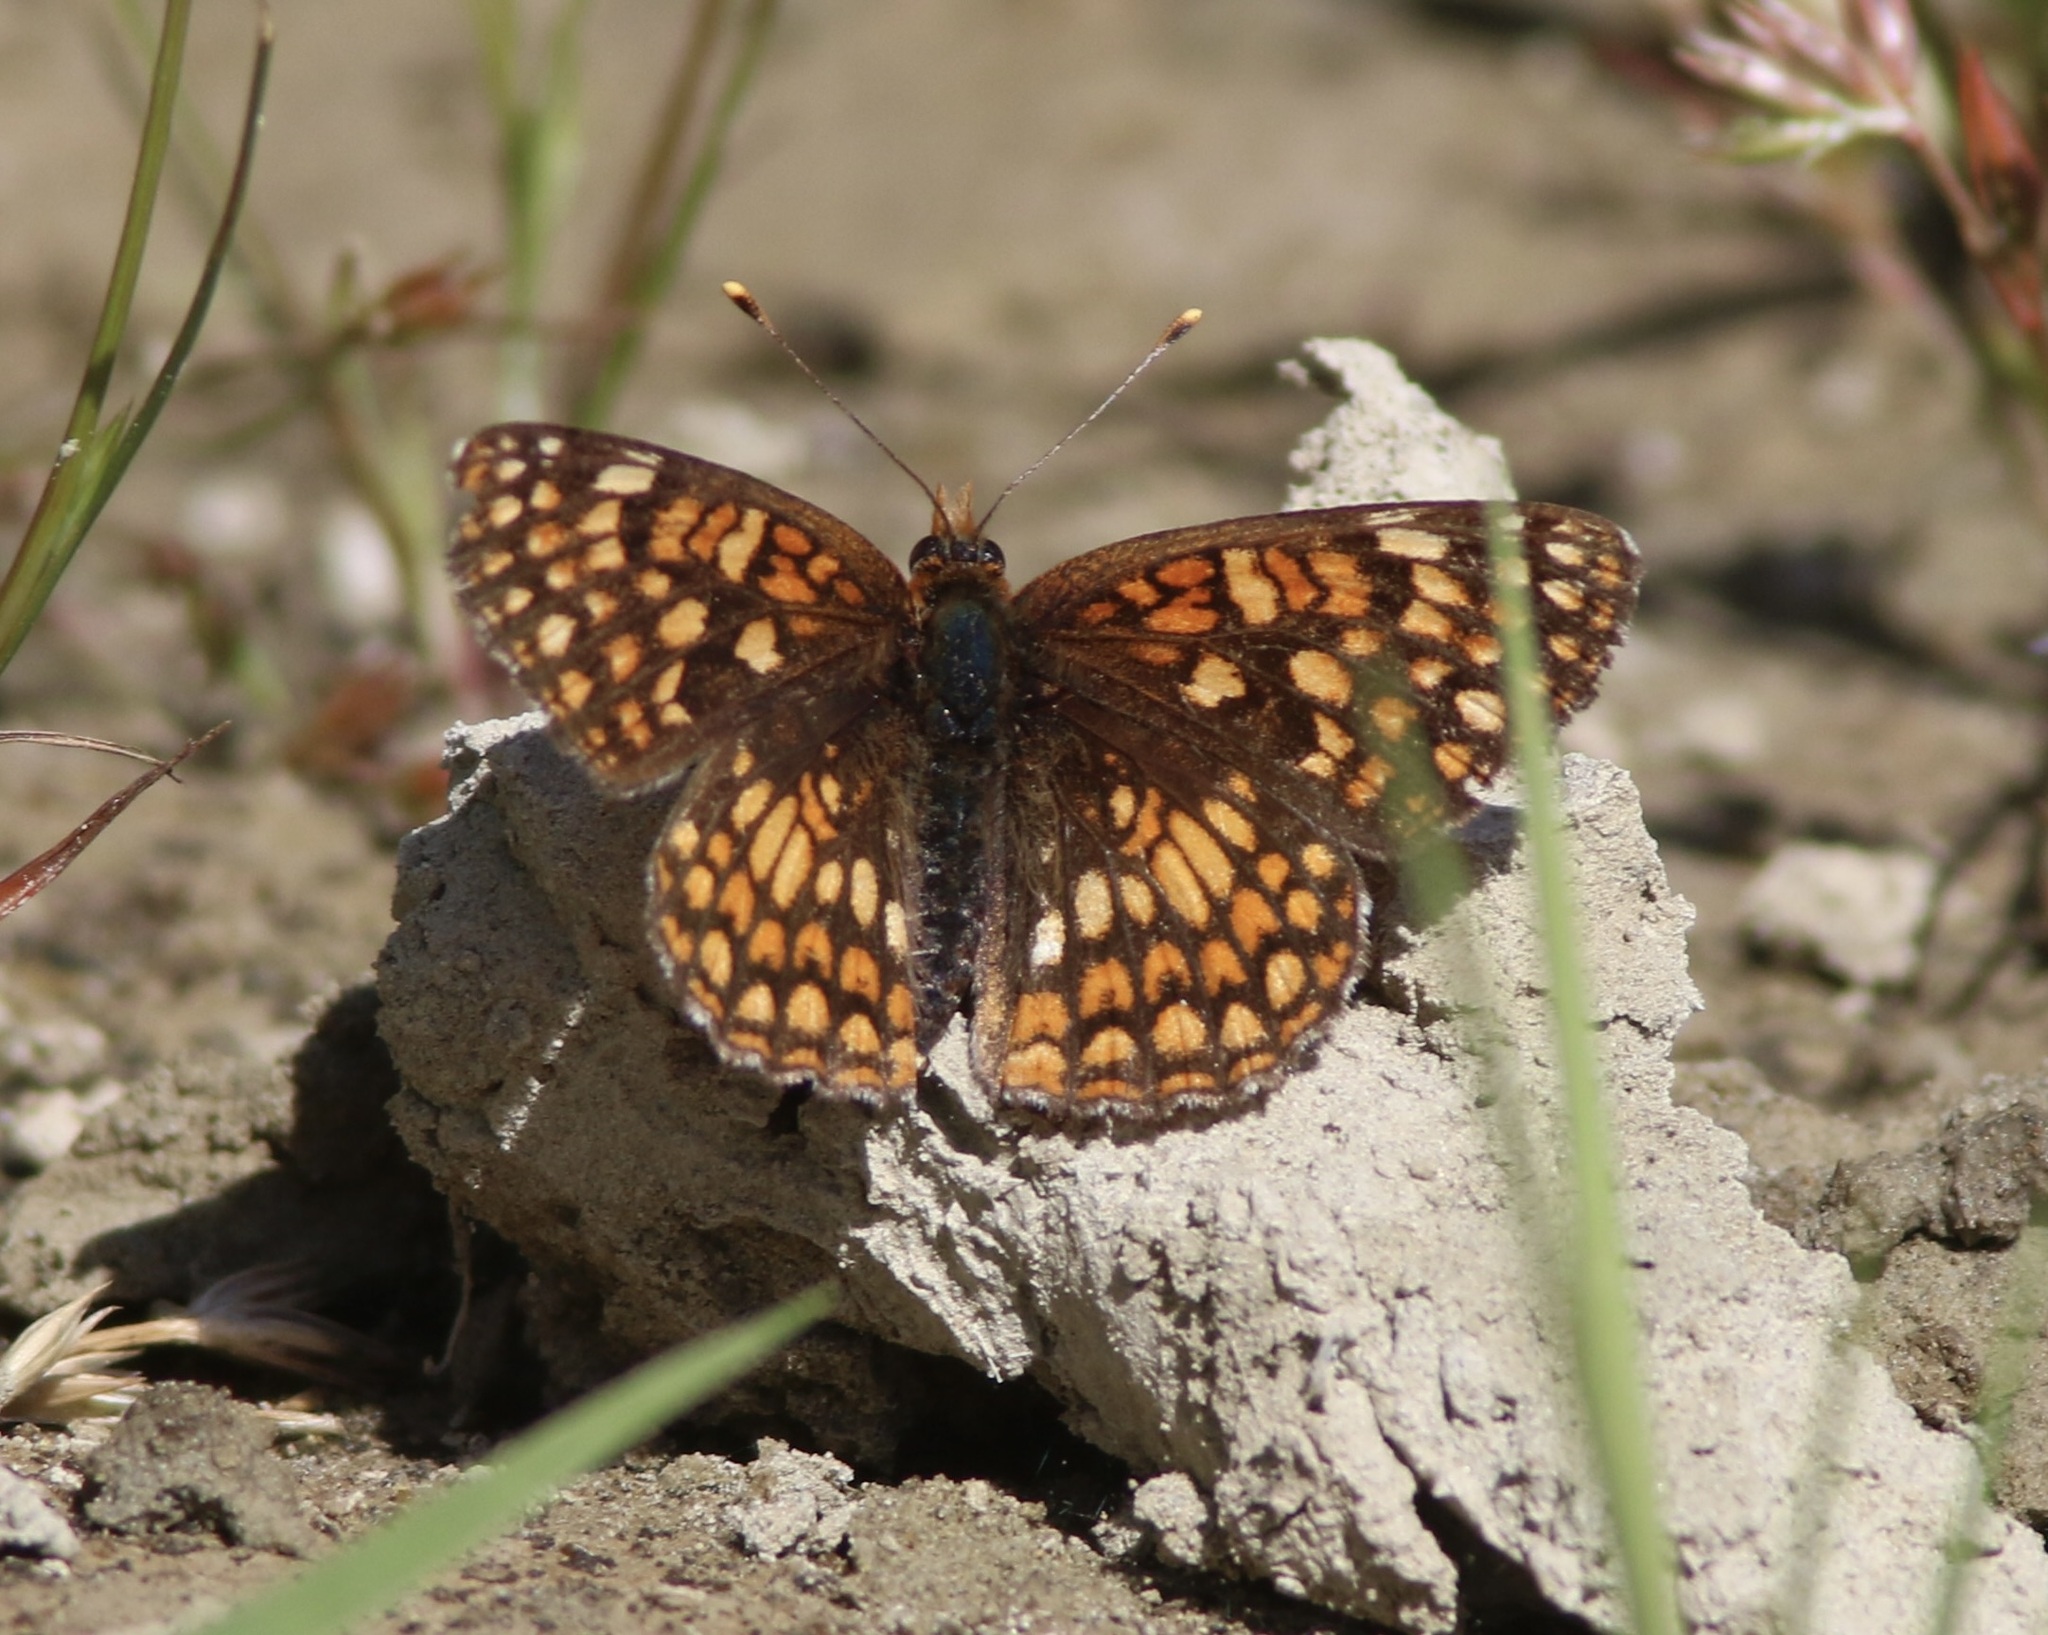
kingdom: Animalia
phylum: Arthropoda
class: Insecta
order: Lepidoptera
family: Nymphalidae
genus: Chlosyne
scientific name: Chlosyne palla
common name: Northern checkerspot
